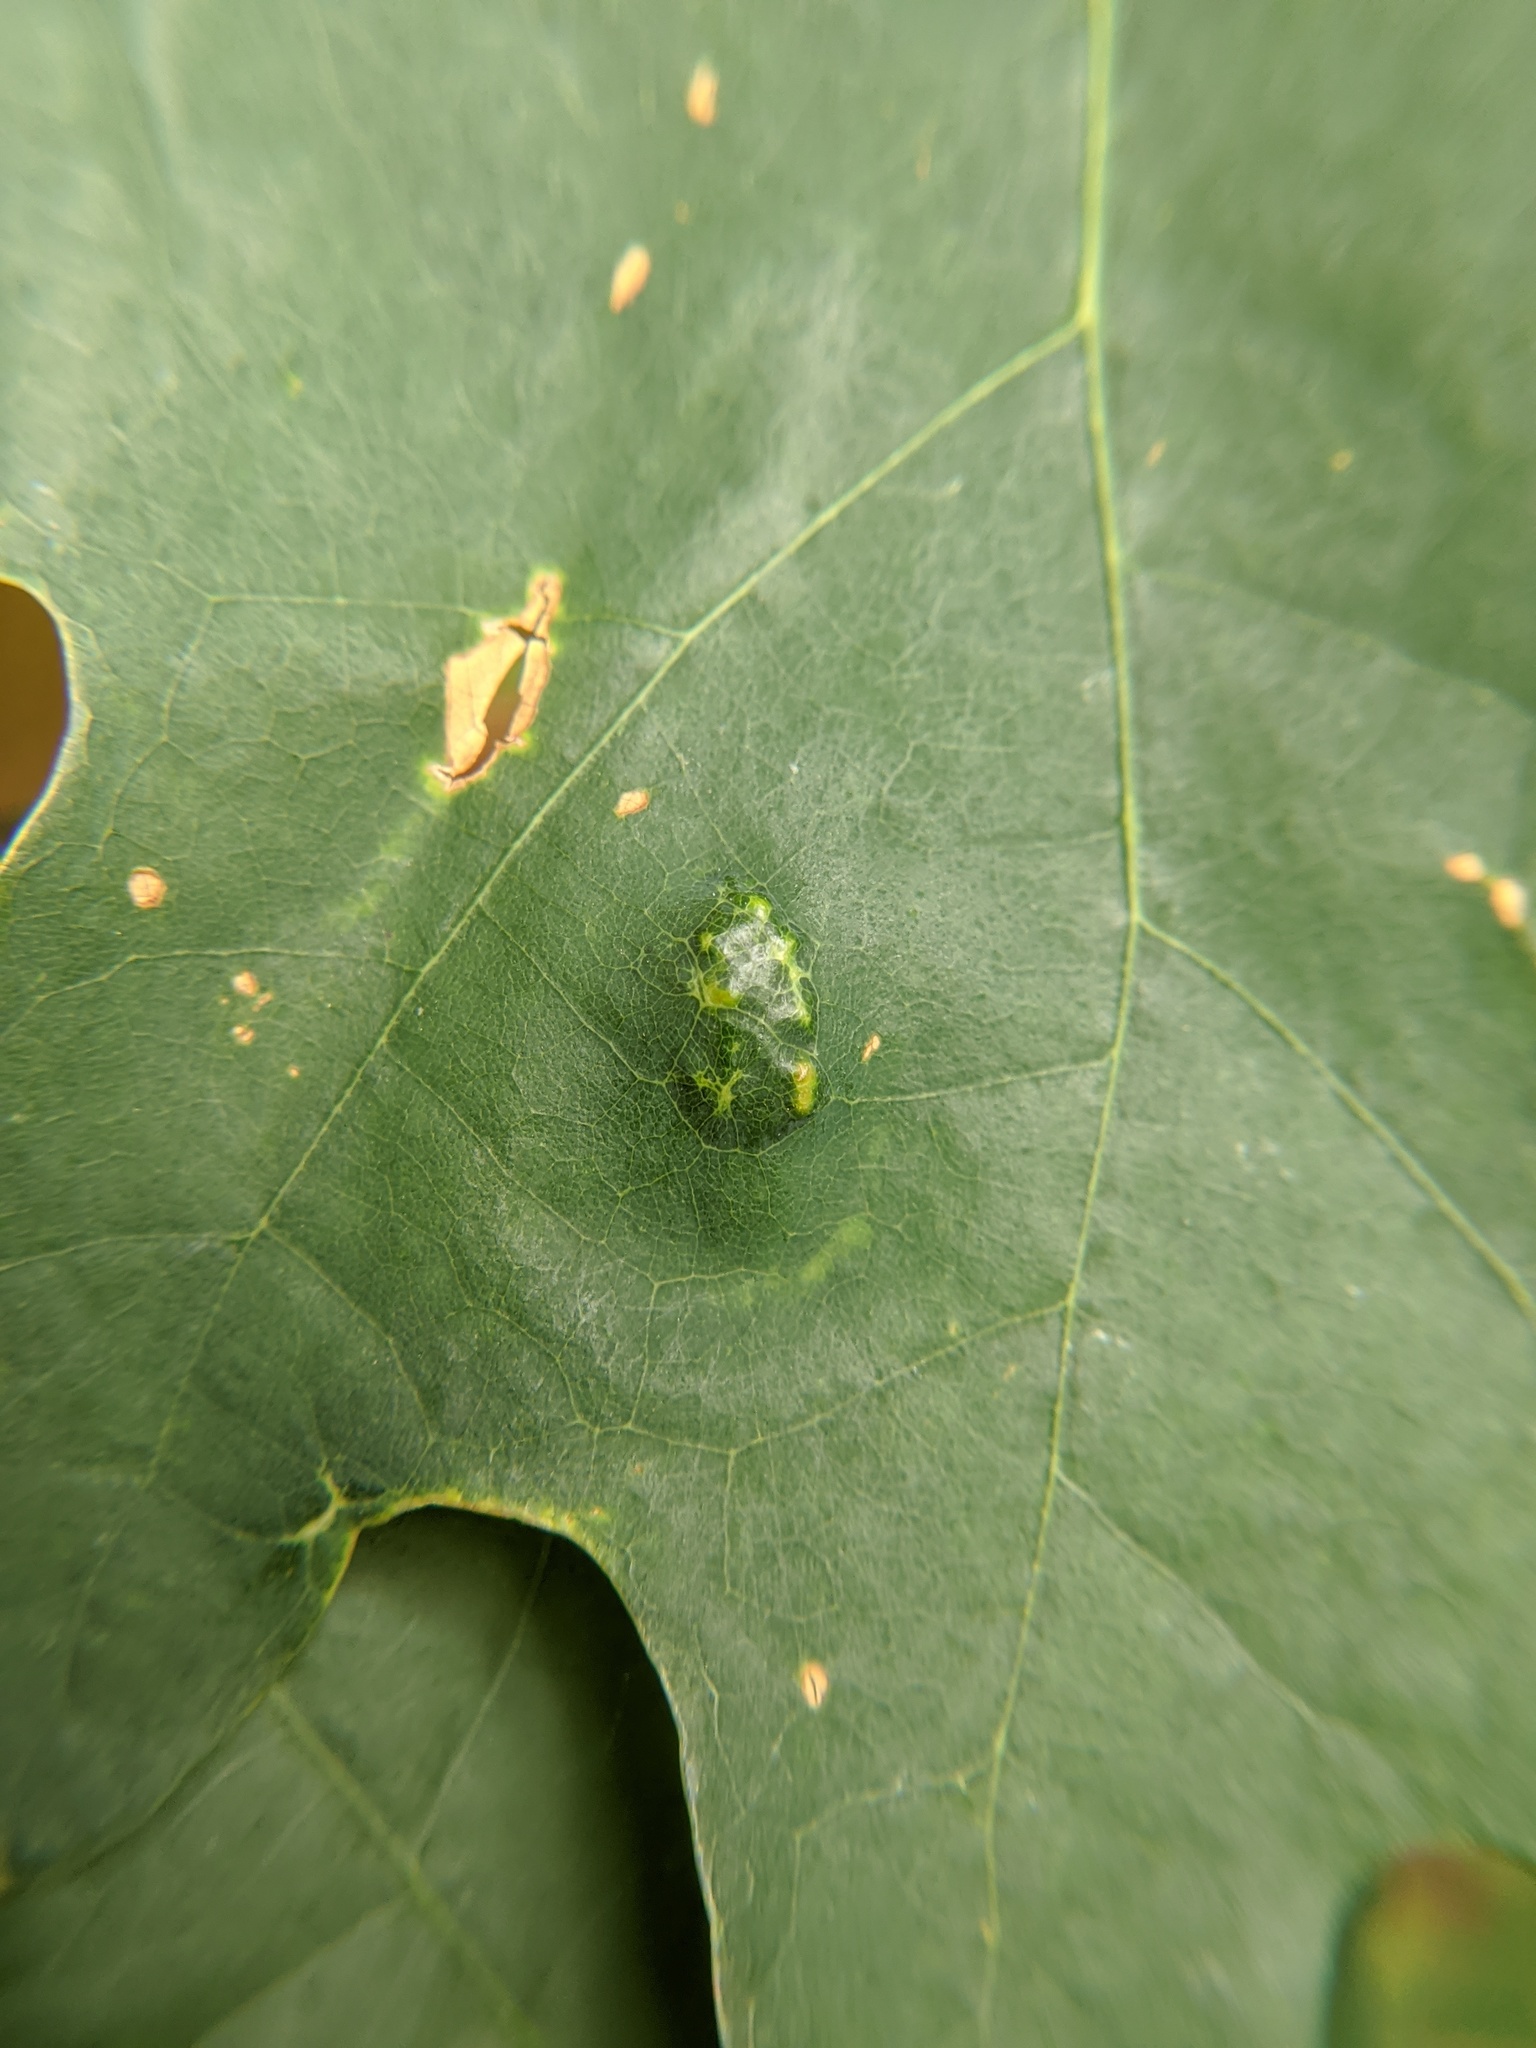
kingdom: Animalia
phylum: Arthropoda
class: Arachnida
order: Trombidiformes
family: Eriophyidae
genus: Aceria
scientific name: Aceria
